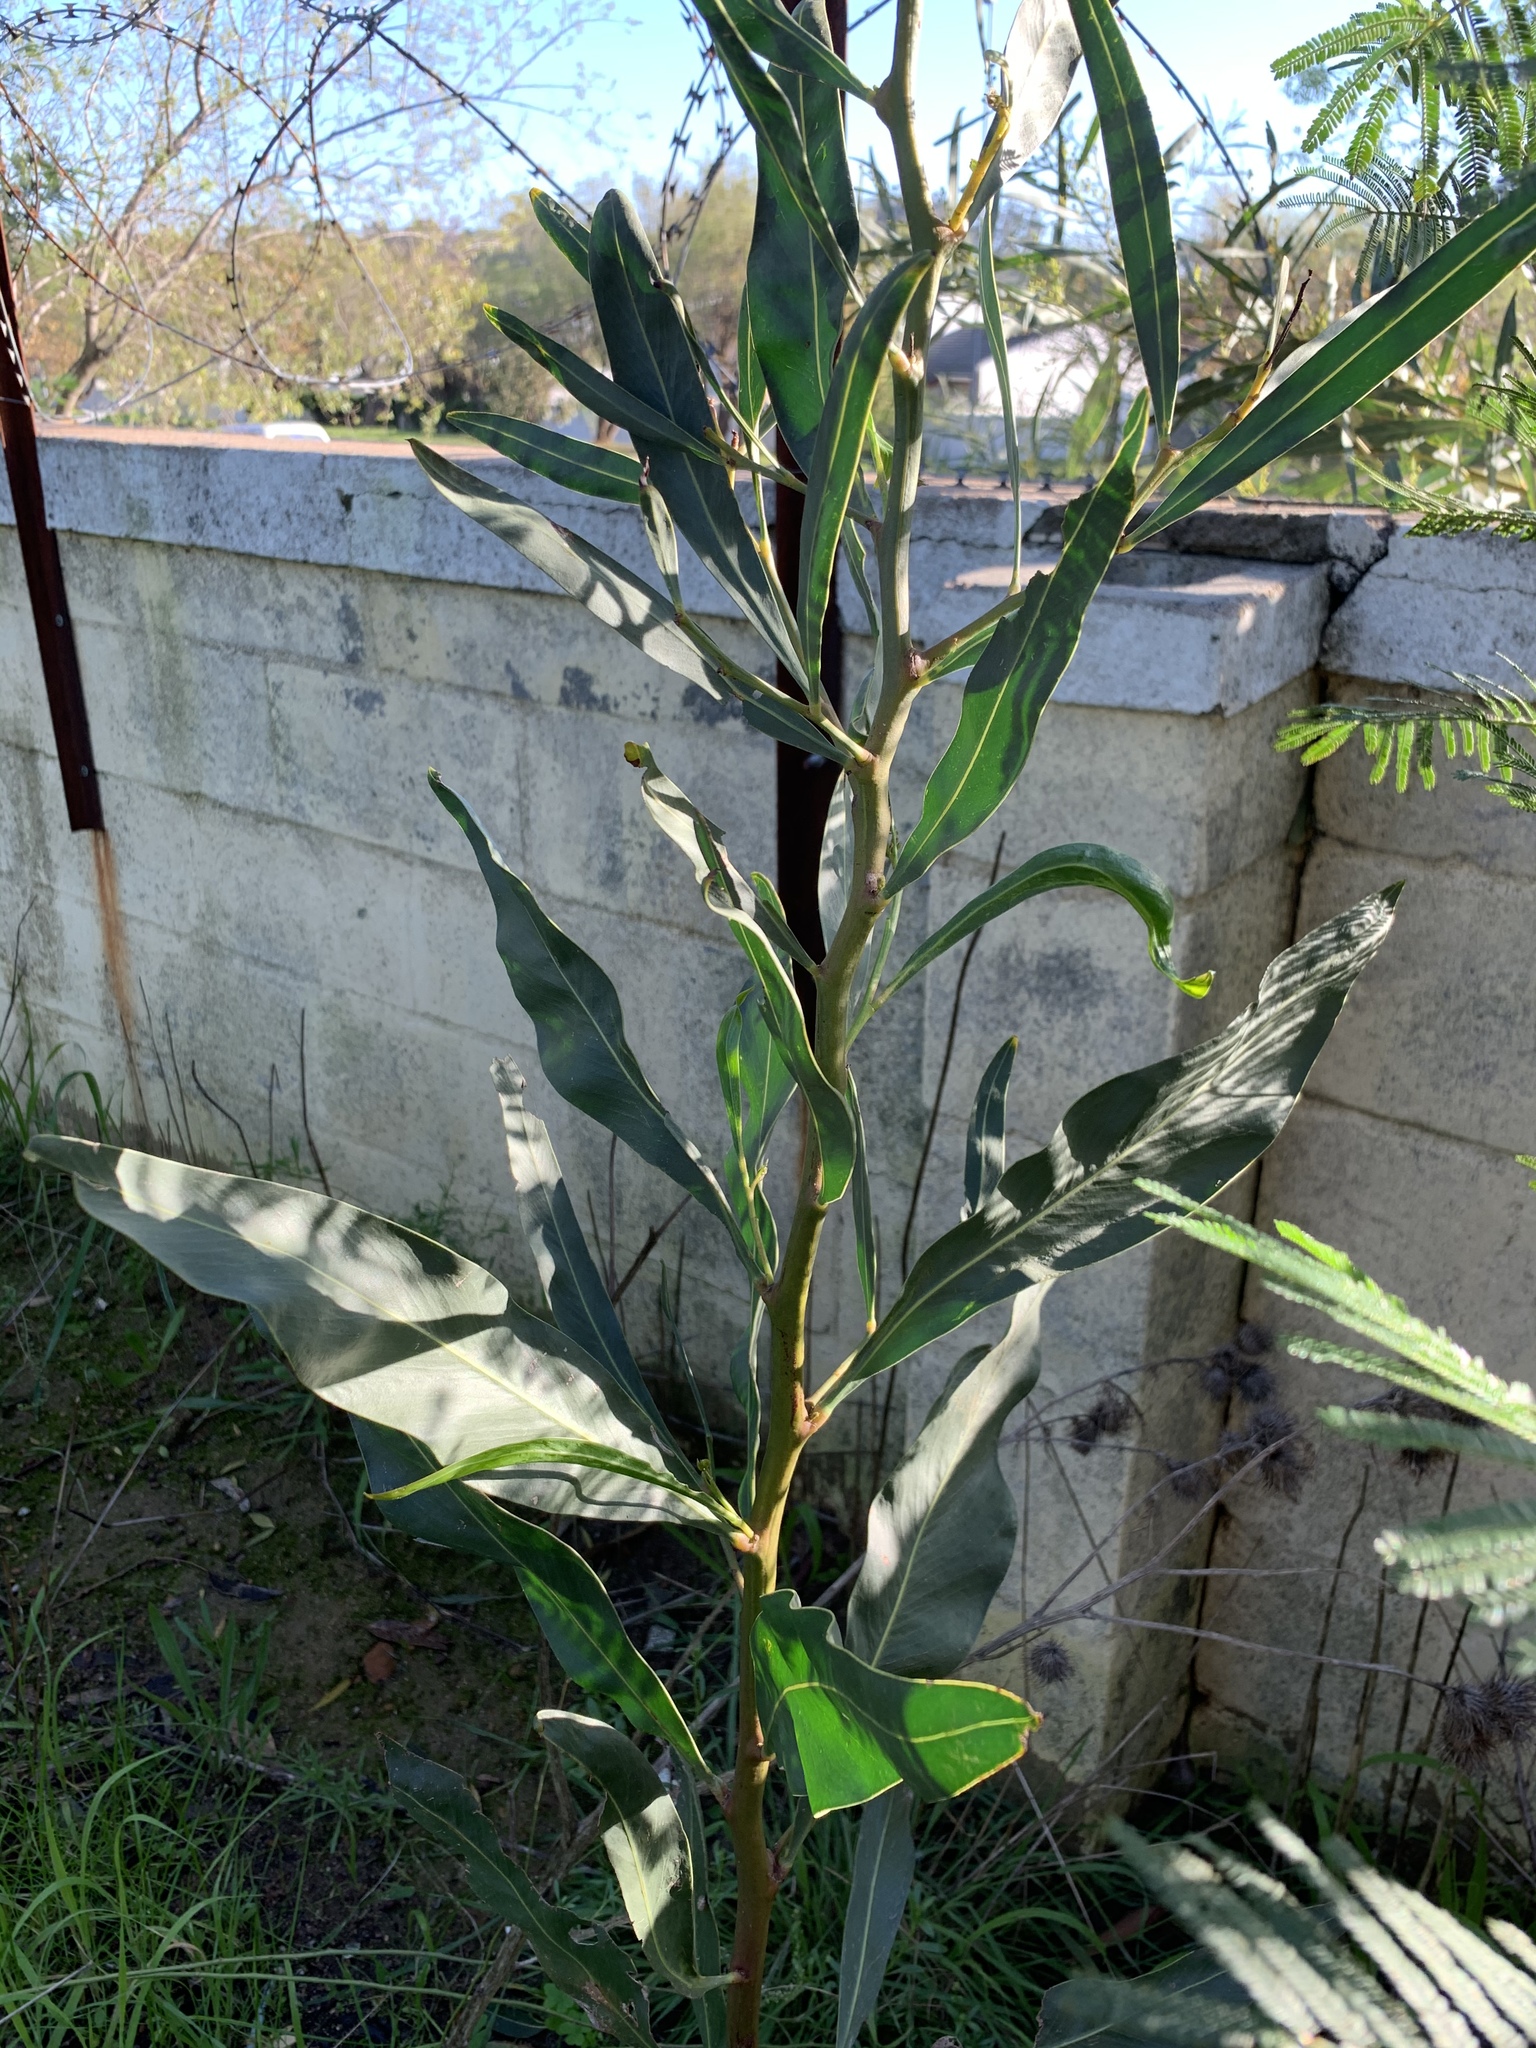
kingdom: Plantae
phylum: Tracheophyta
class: Magnoliopsida
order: Fabales
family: Fabaceae
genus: Acacia
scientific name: Acacia saligna
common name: Orange wattle
